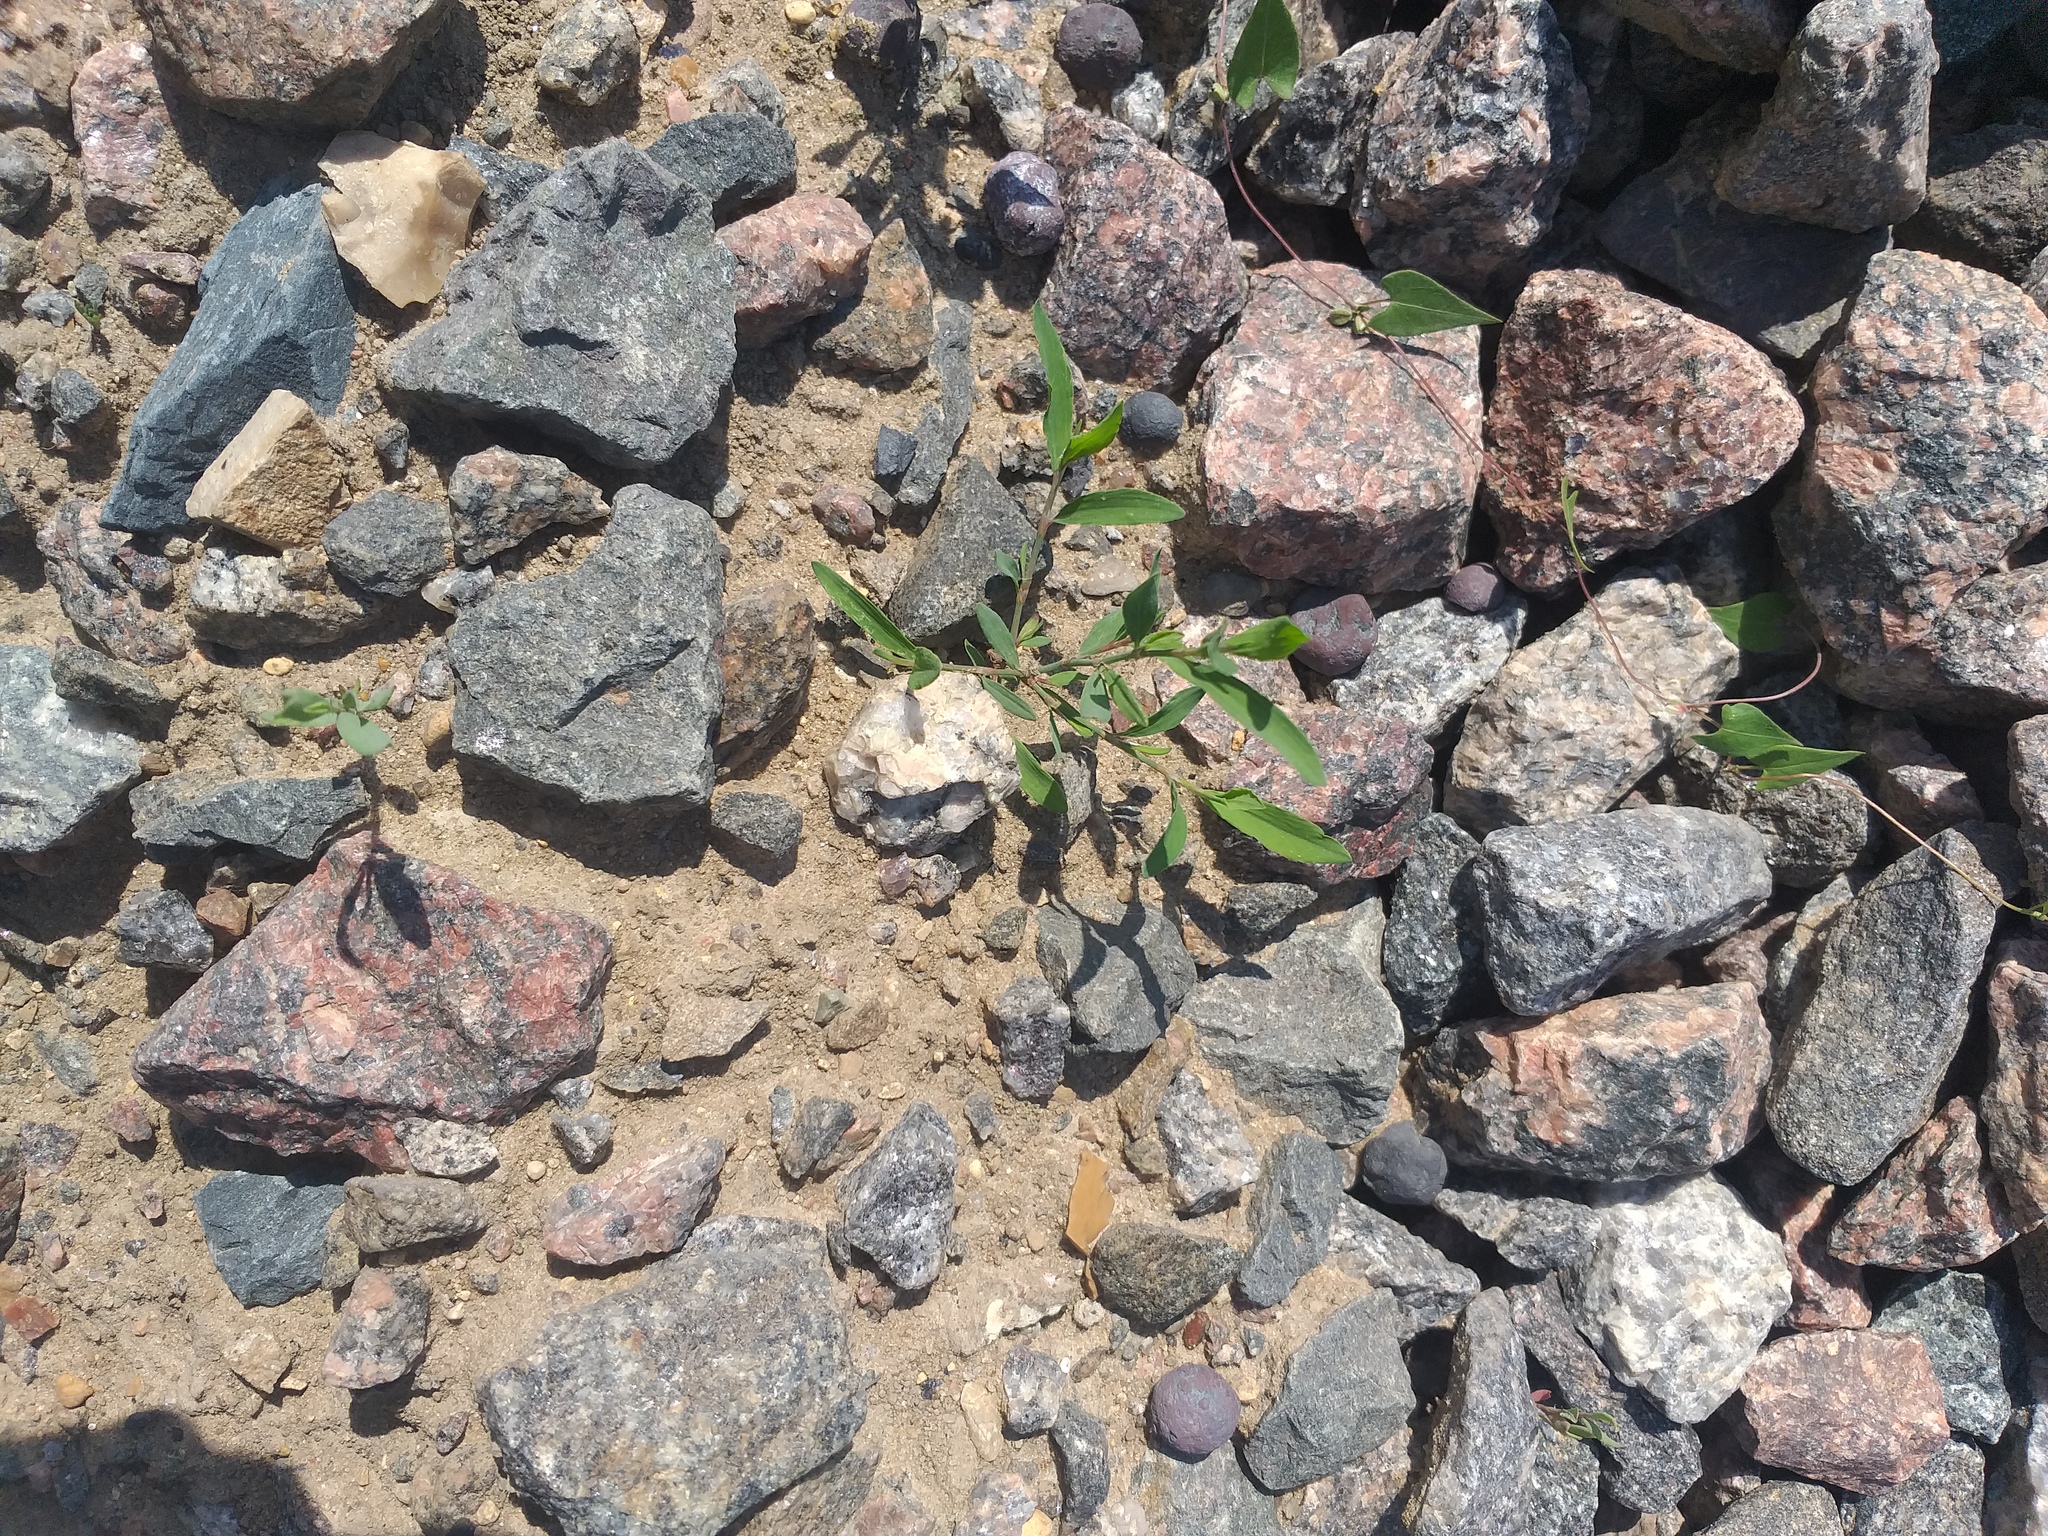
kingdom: Plantae
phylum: Tracheophyta
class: Magnoliopsida
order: Caryophyllales
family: Polygonaceae
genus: Polygonum
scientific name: Polygonum
